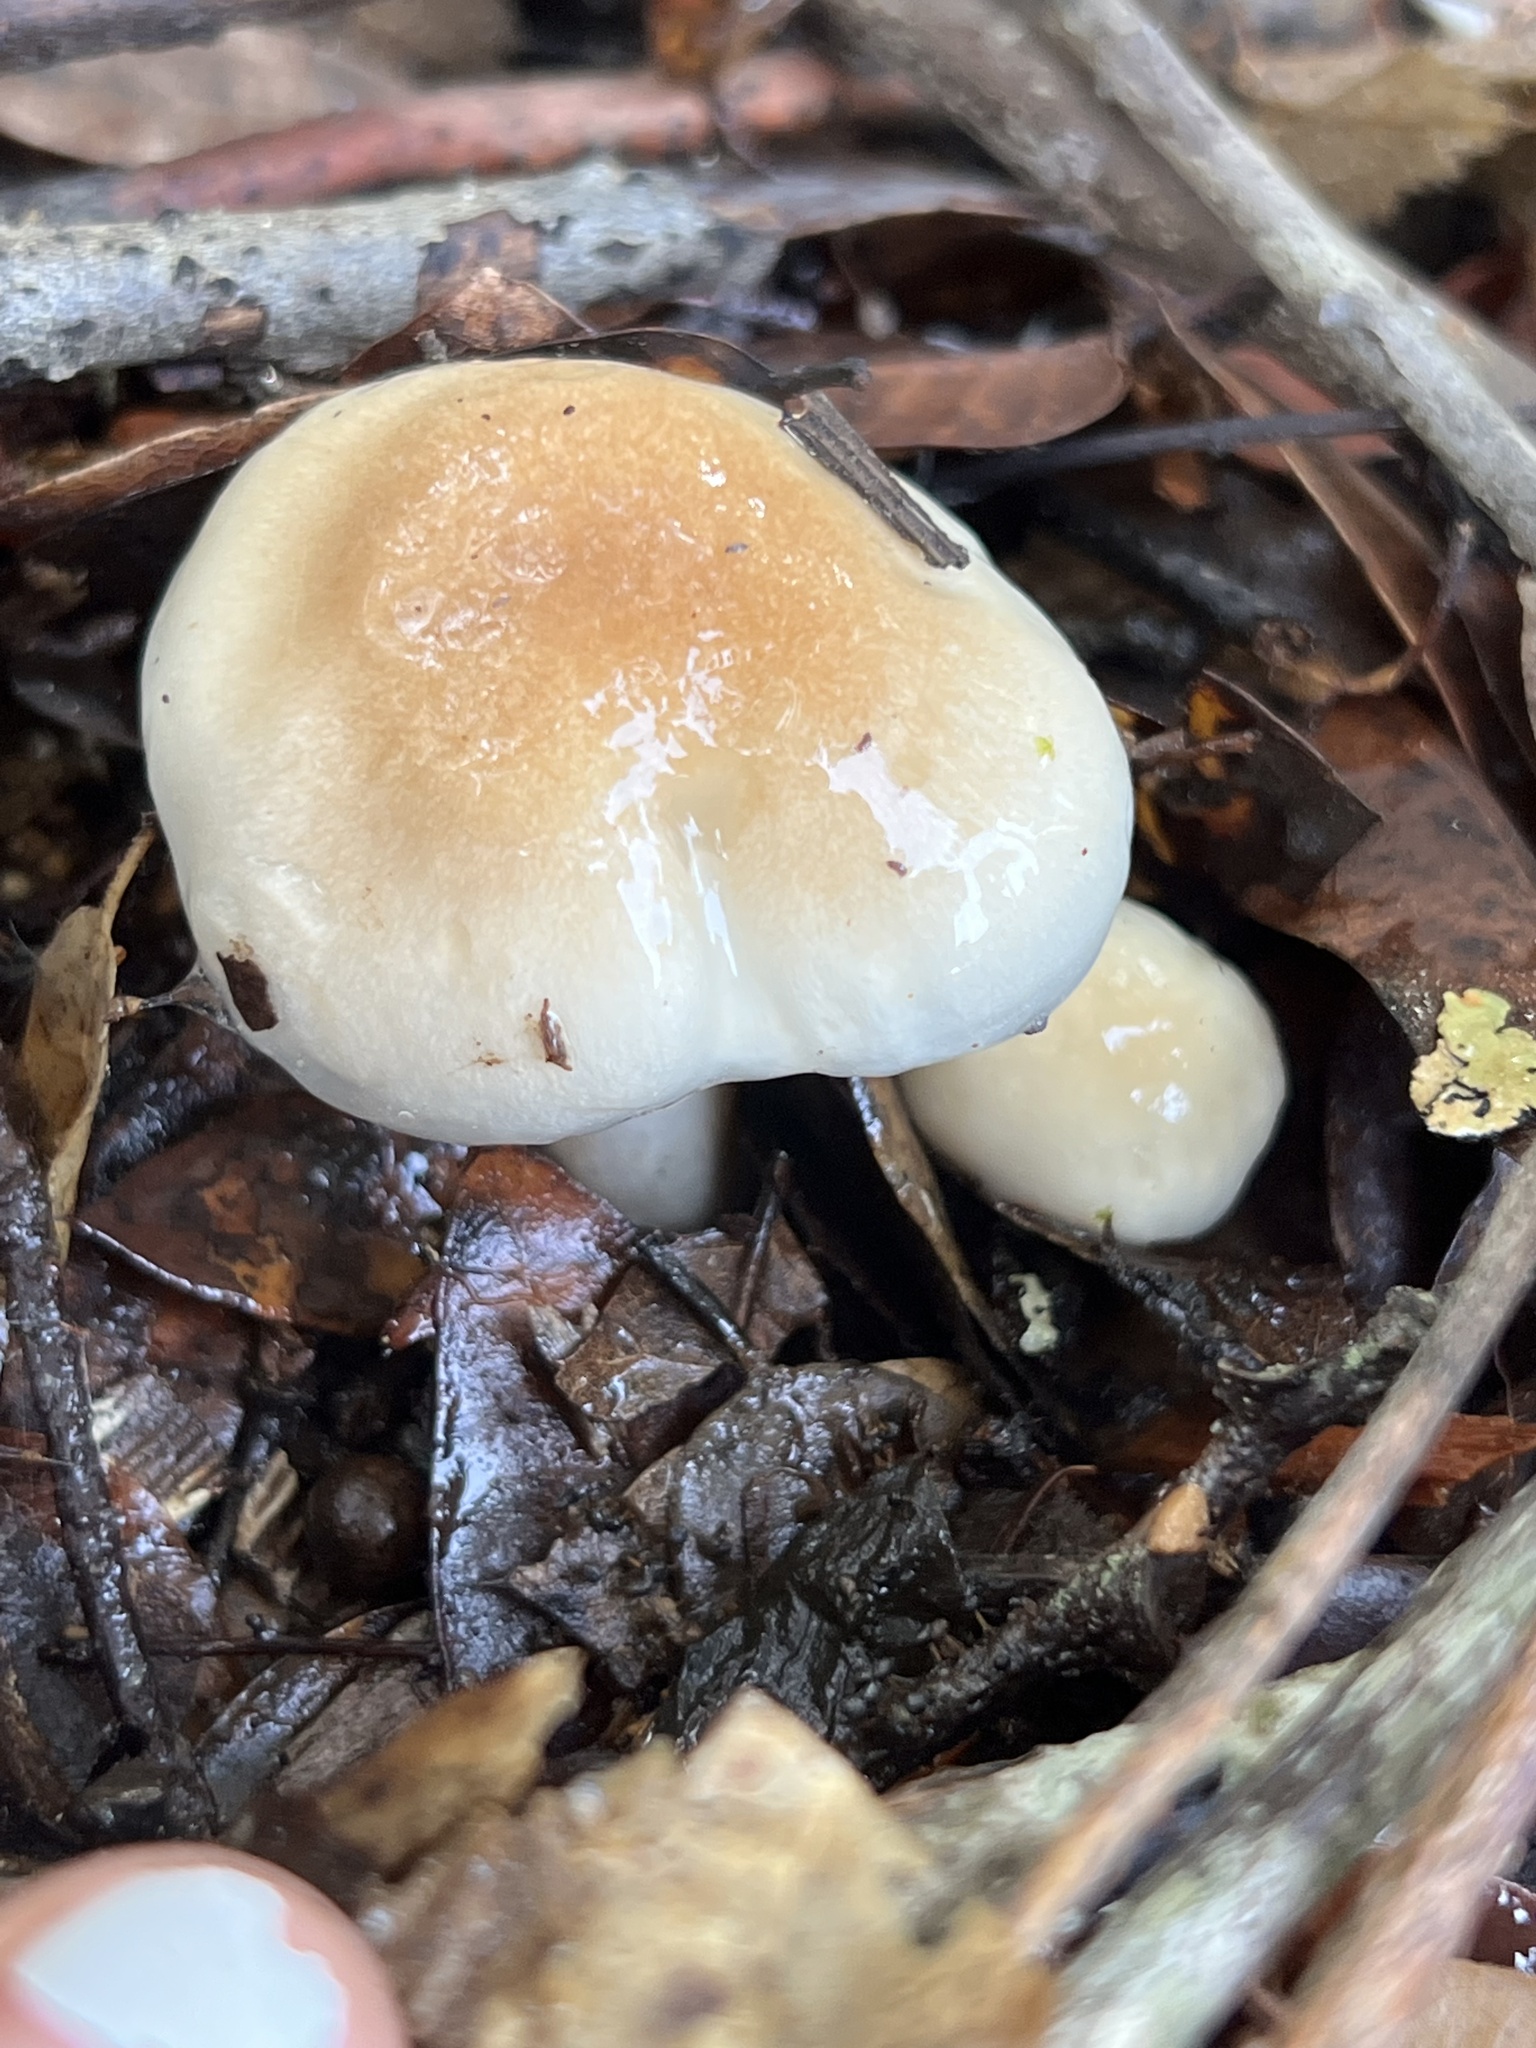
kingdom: Fungi
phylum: Basidiomycota
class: Agaricomycetes
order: Agaricales
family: Hygrophoraceae
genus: Hygrophorus
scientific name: Hygrophorus roseobrunneus
